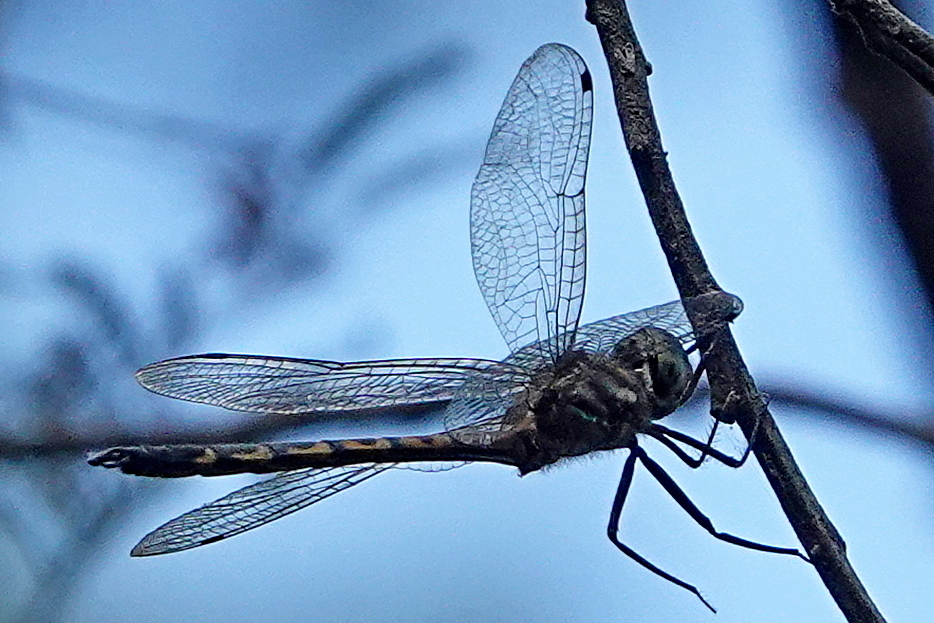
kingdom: Animalia
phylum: Arthropoda
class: Insecta
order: Odonata
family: Corduliidae
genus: Hemicordulia
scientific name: Hemicordulia australiae
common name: Sentry dragonfly
